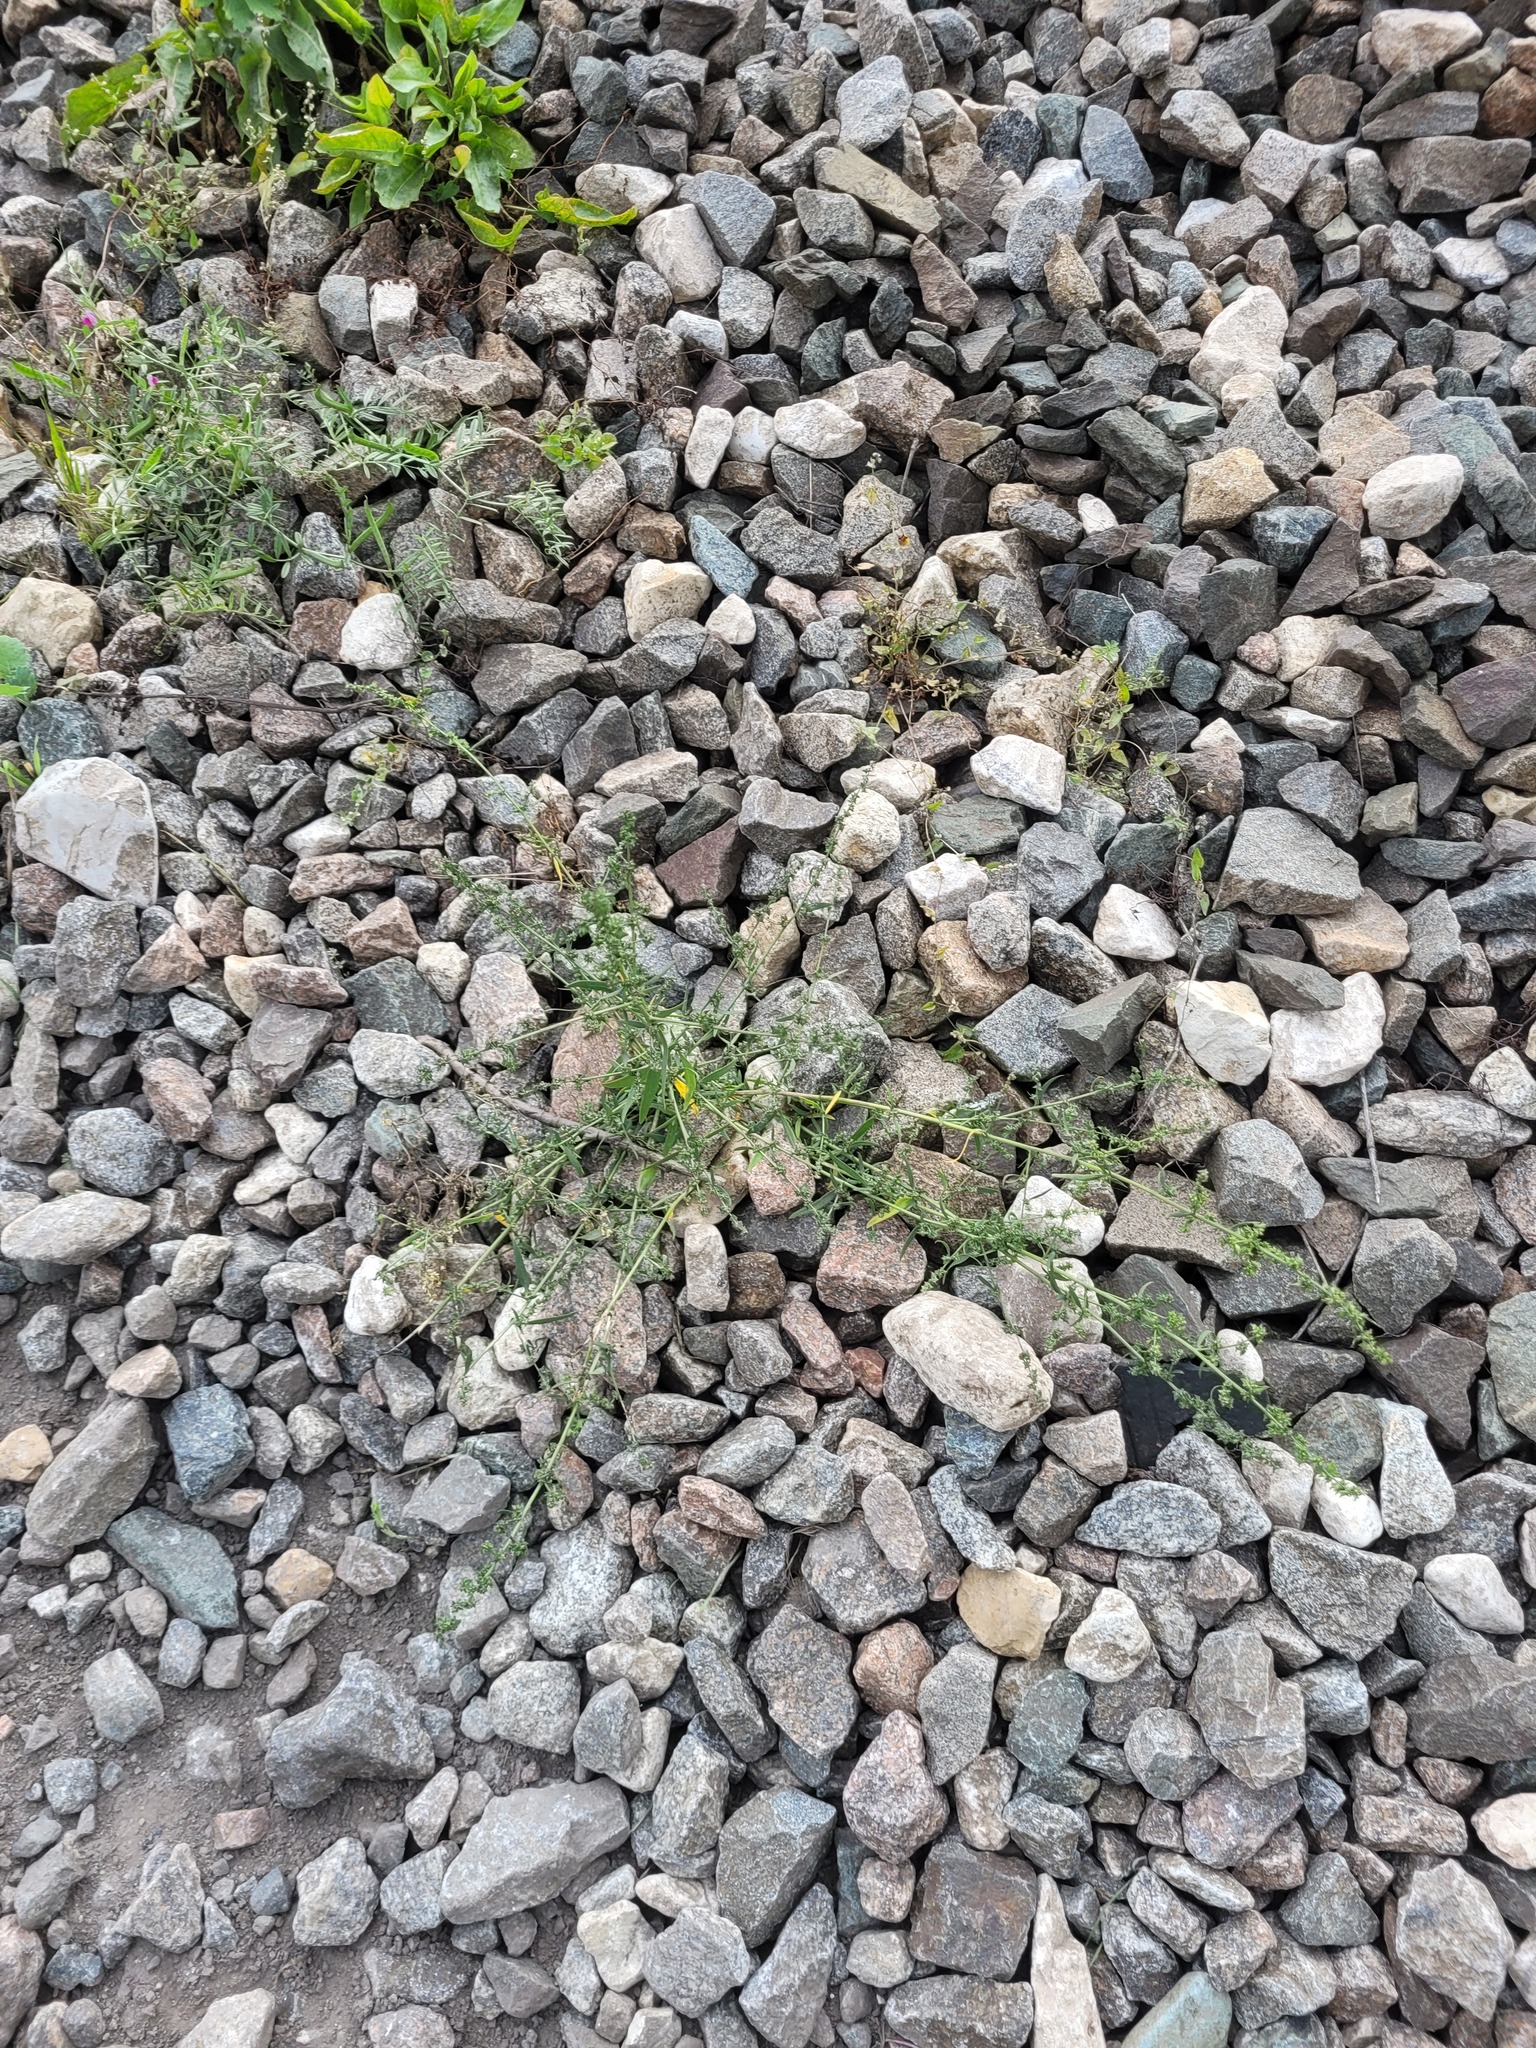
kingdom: Plantae
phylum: Tracheophyta
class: Magnoliopsida
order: Caryophyllales
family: Amaranthaceae
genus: Atriplex
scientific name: Atriplex patula
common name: Common orache
